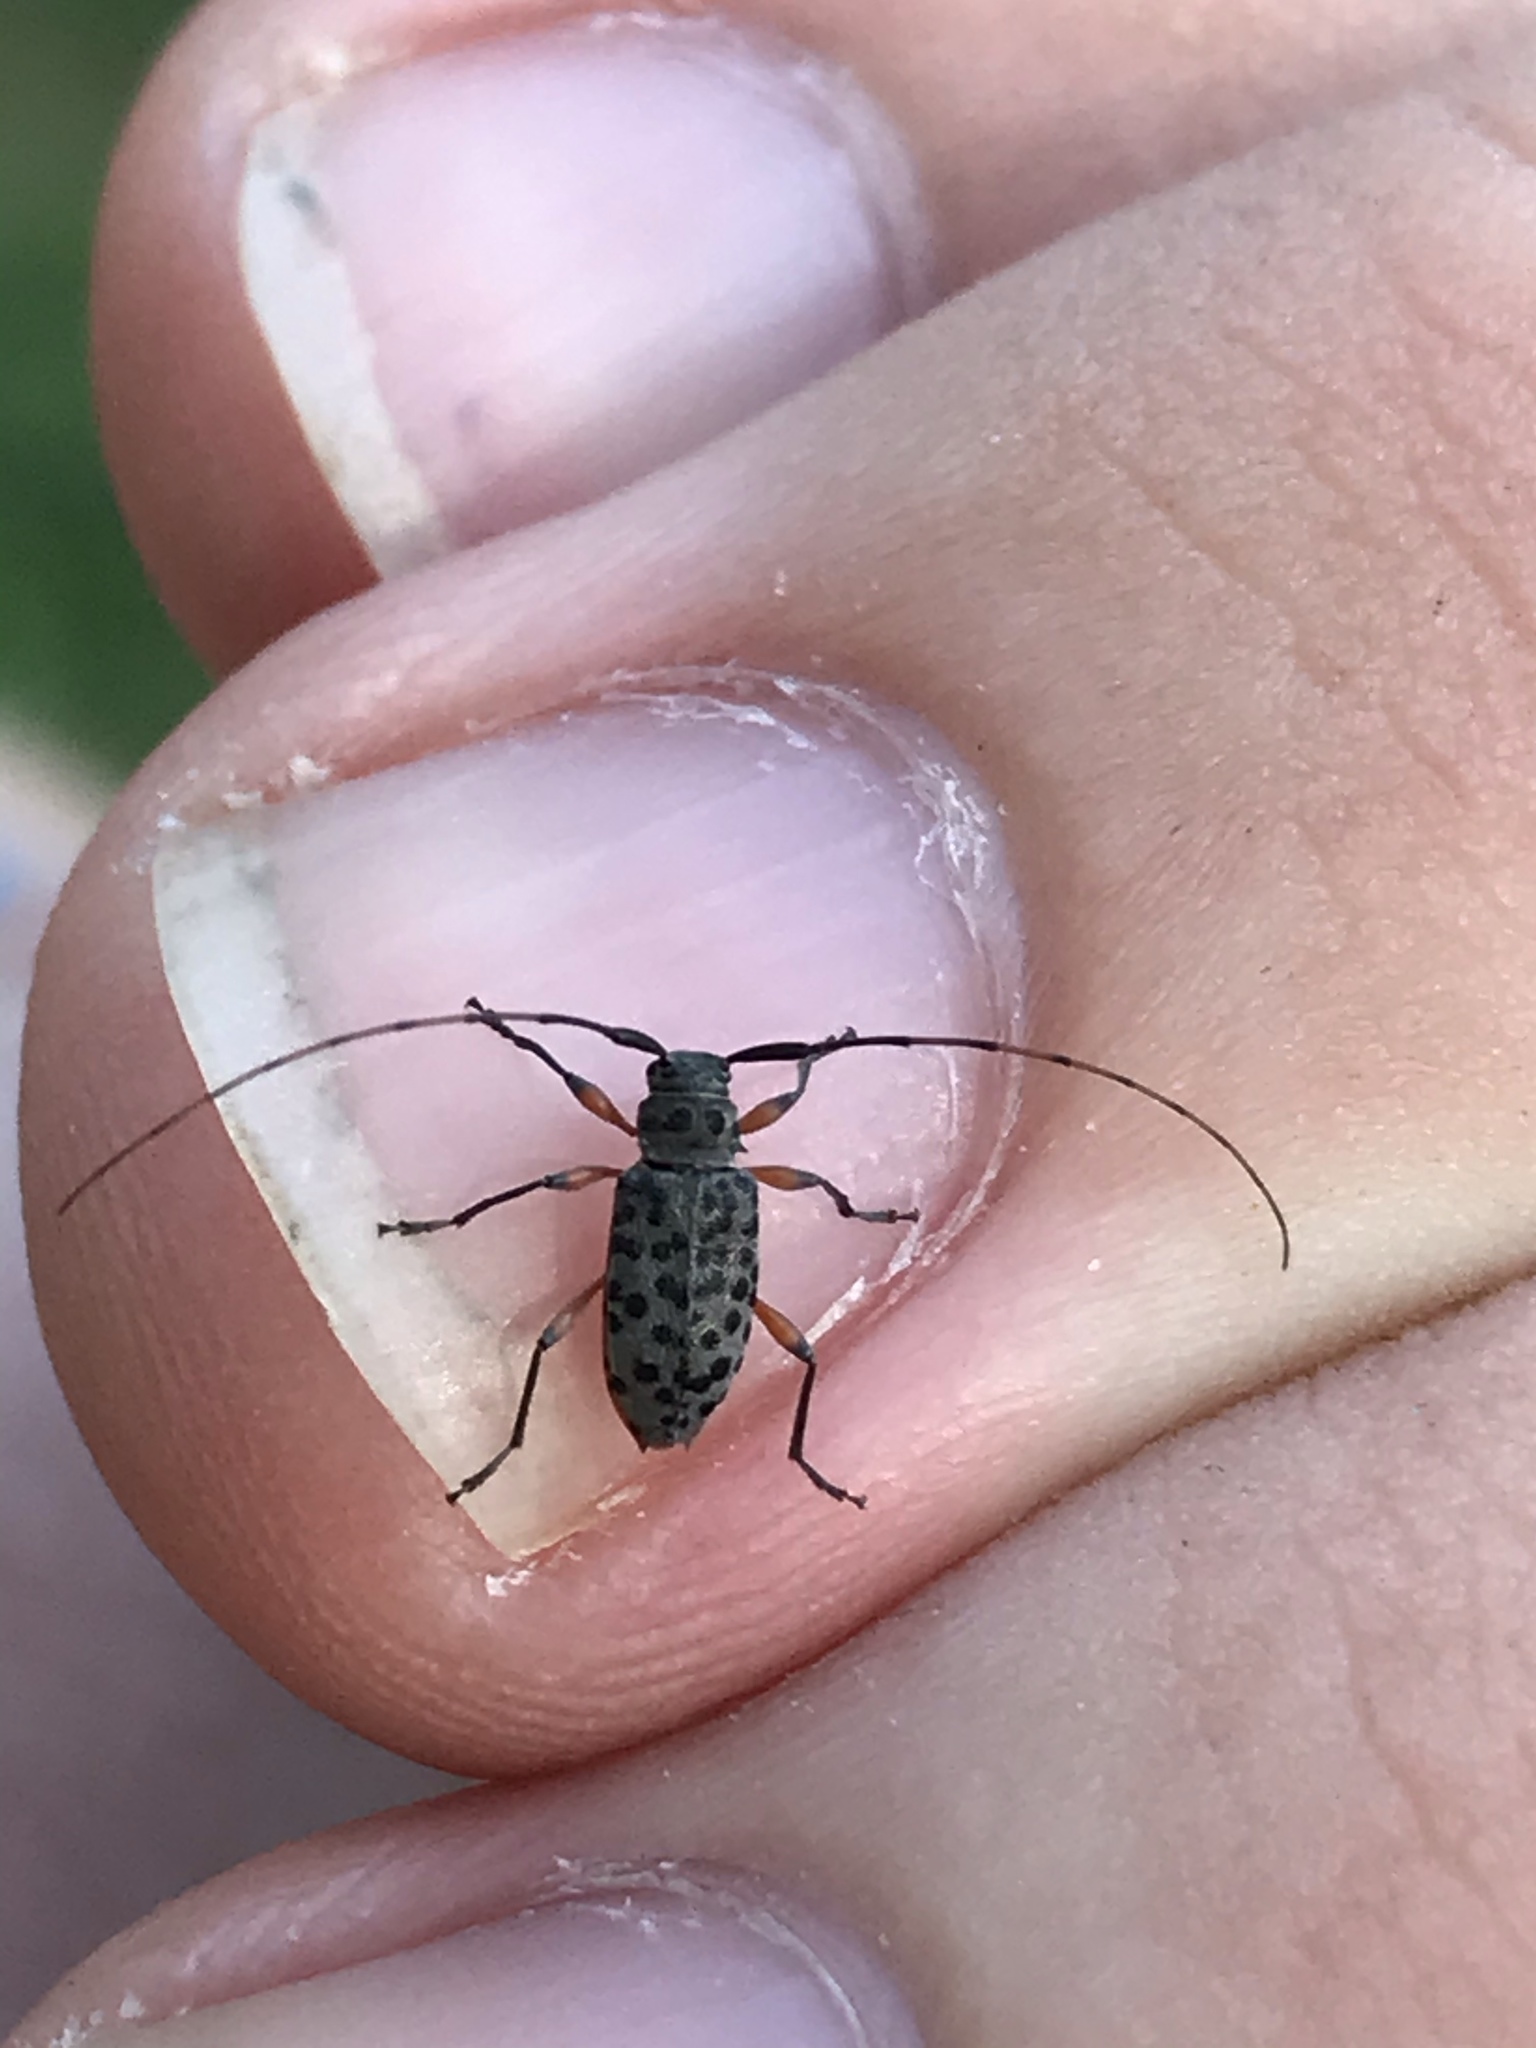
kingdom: Animalia
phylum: Arthropoda
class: Insecta
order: Coleoptera
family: Cerambycidae
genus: Hyperplatys
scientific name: Hyperplatys aspersa
